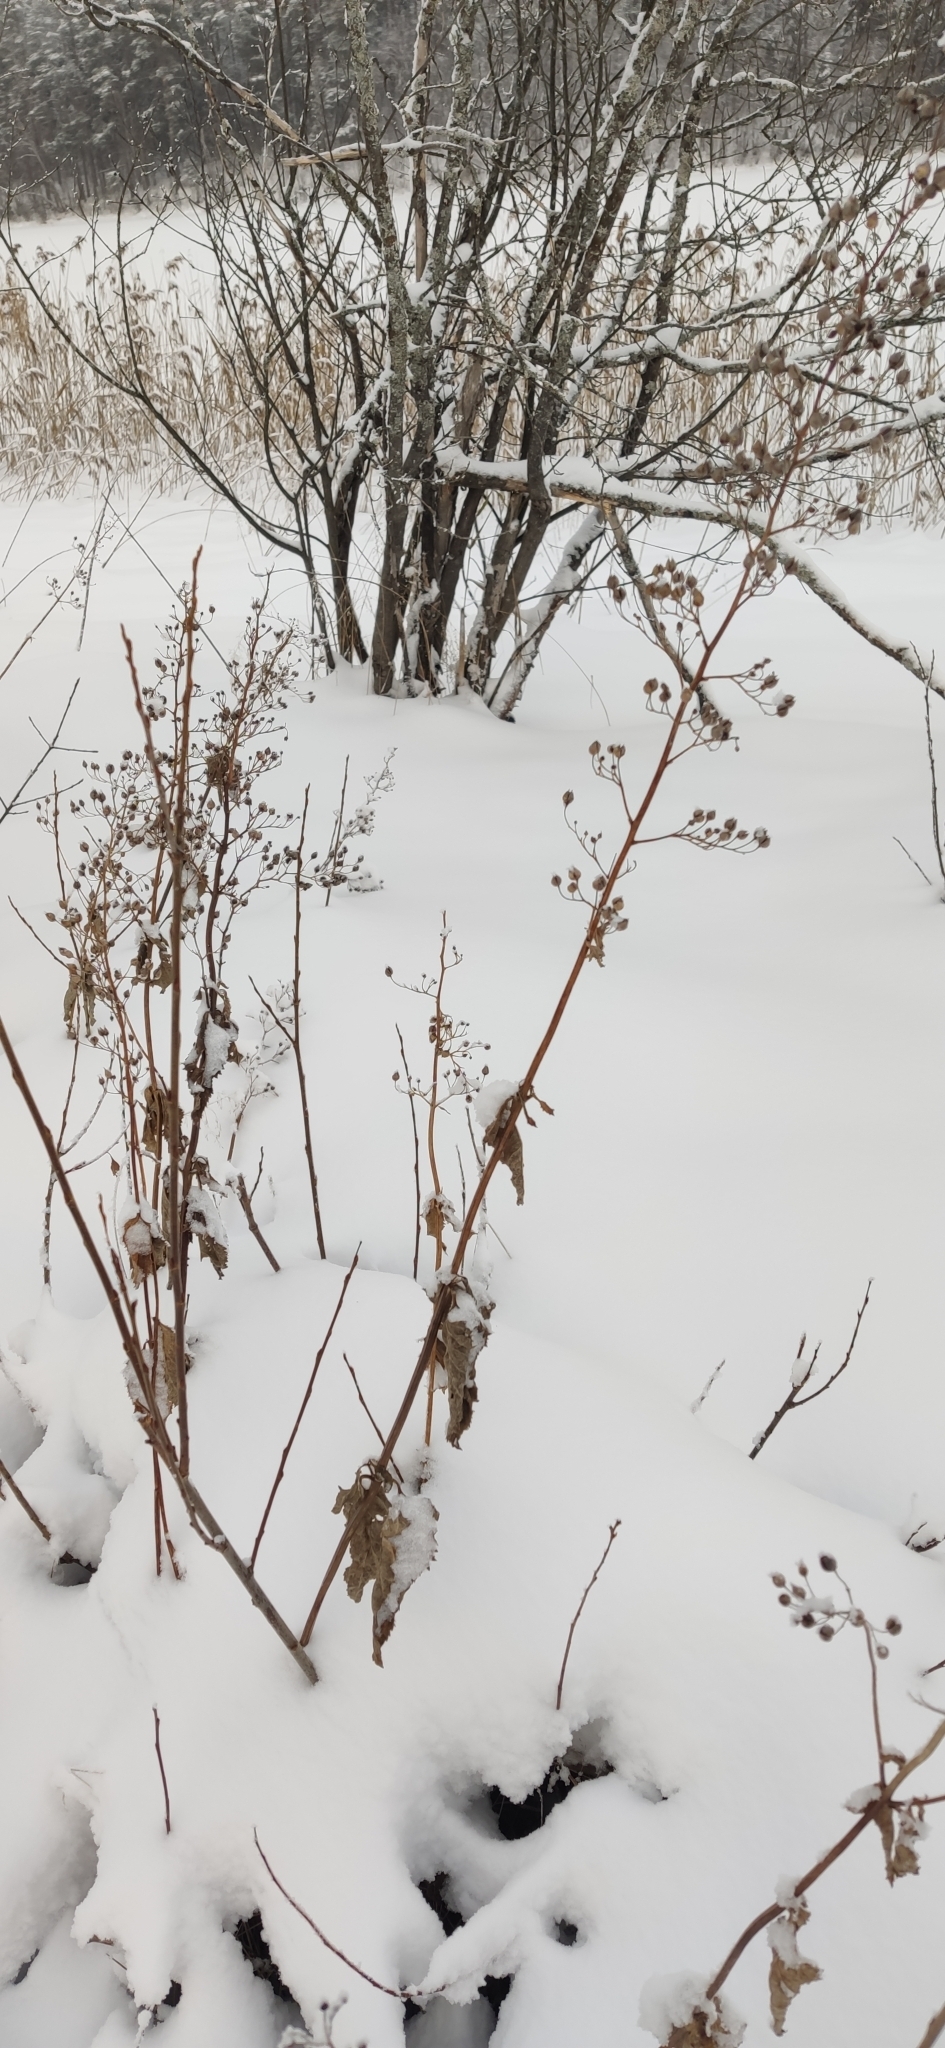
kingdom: Plantae
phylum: Tracheophyta
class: Magnoliopsida
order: Lamiales
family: Scrophulariaceae
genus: Scrophularia
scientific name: Scrophularia nodosa
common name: Common figwort
